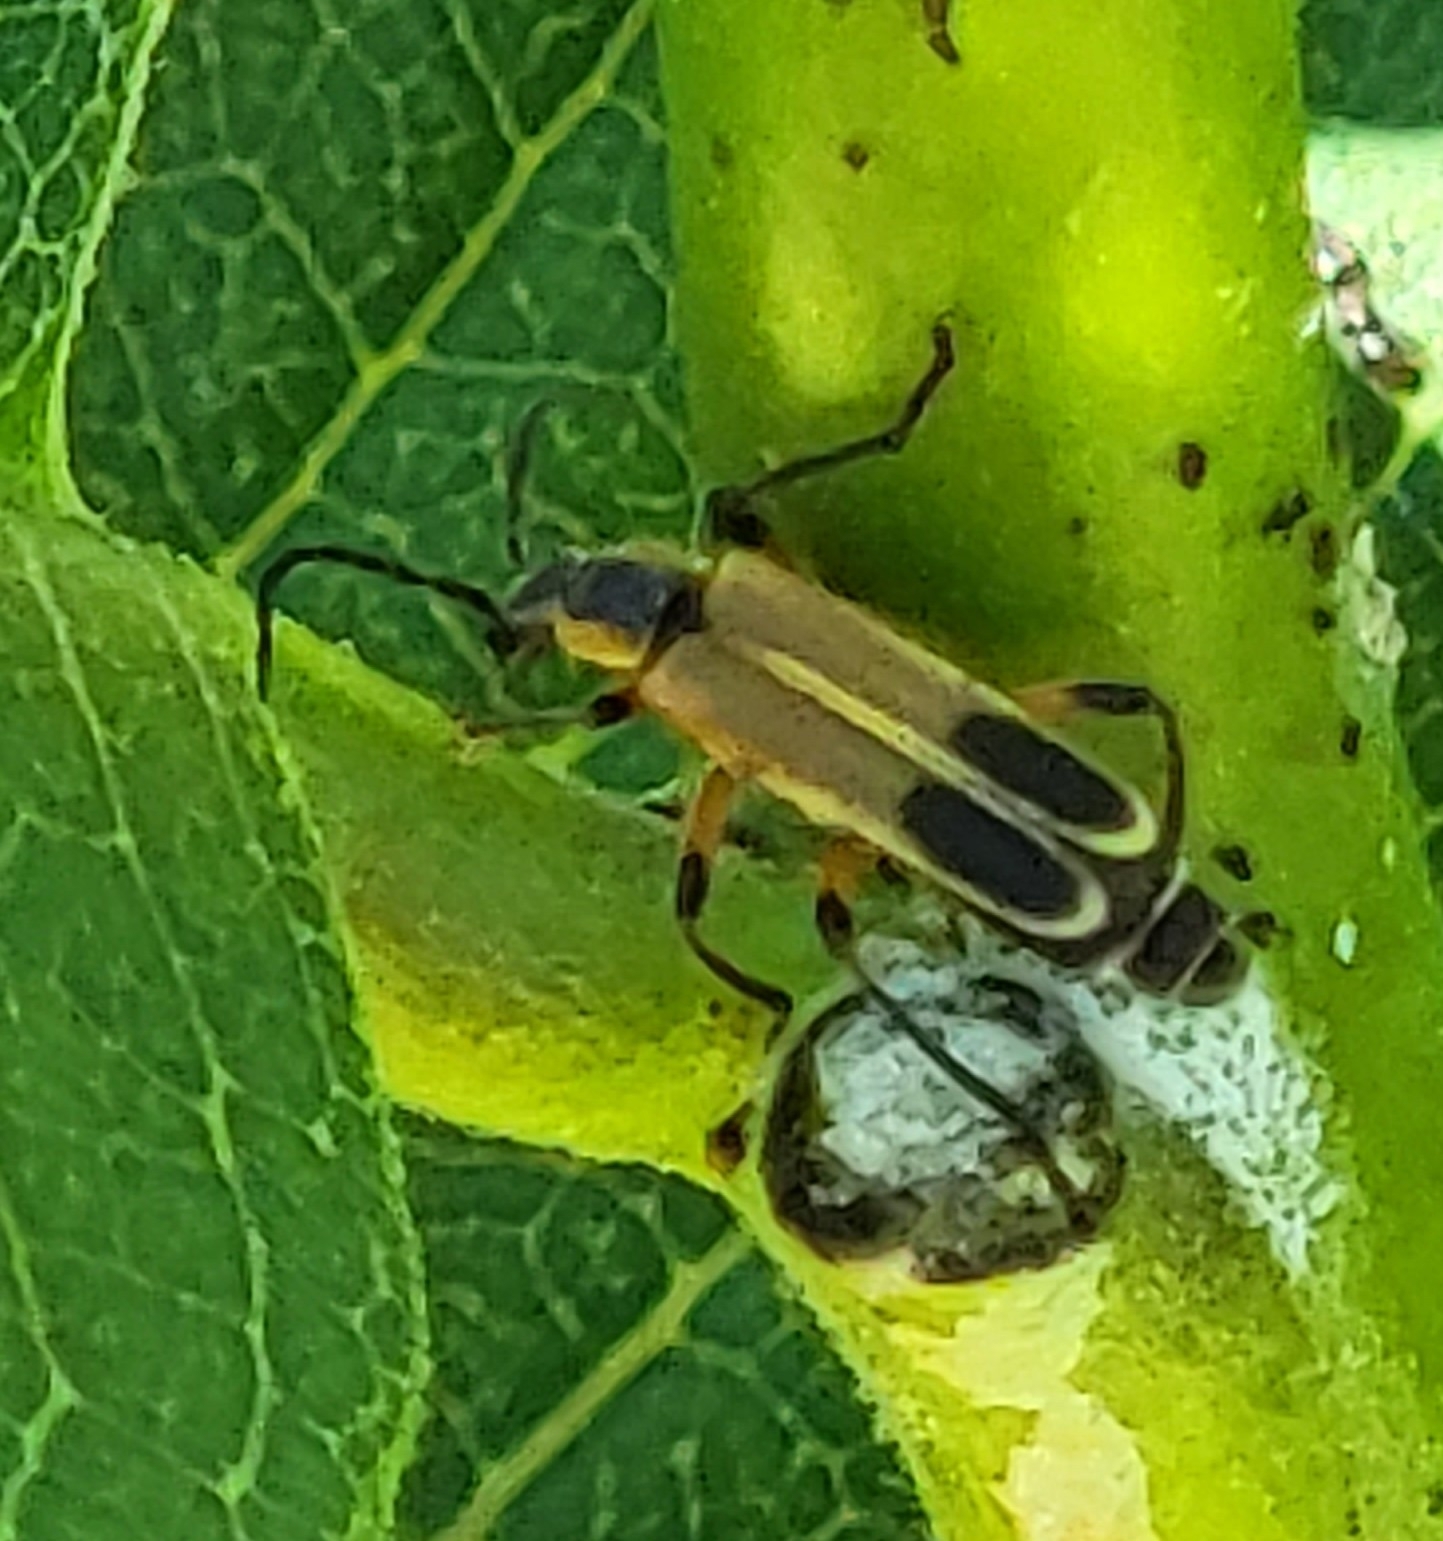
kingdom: Animalia
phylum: Arthropoda
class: Insecta
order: Coleoptera
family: Cantharidae
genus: Chauliognathus
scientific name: Chauliognathus marginatus
